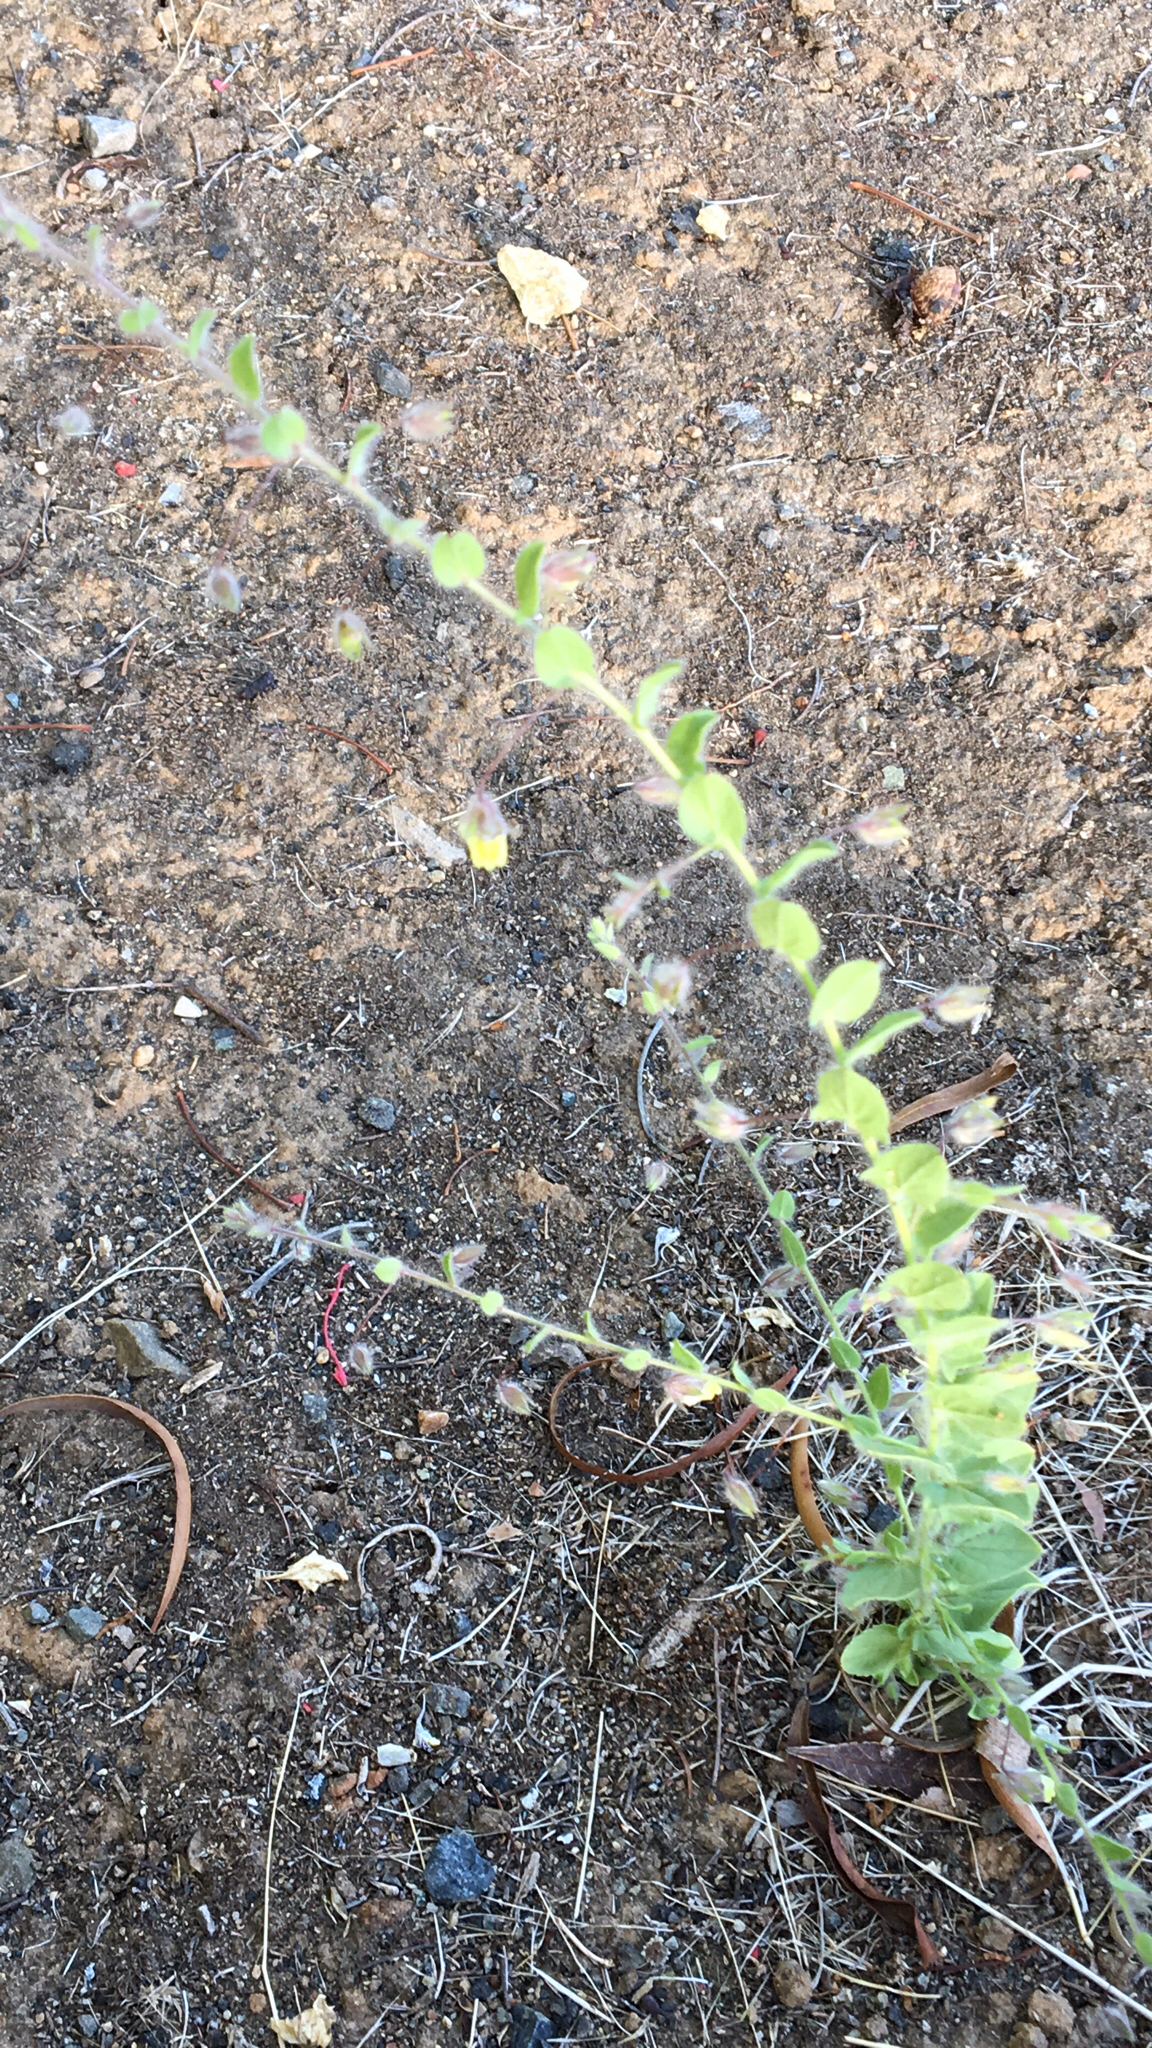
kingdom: Plantae
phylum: Tracheophyta
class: Magnoliopsida
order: Lamiales
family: Plantaginaceae
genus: Kickxia
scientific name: Kickxia elatine
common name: Sharp-leaved fluellen
